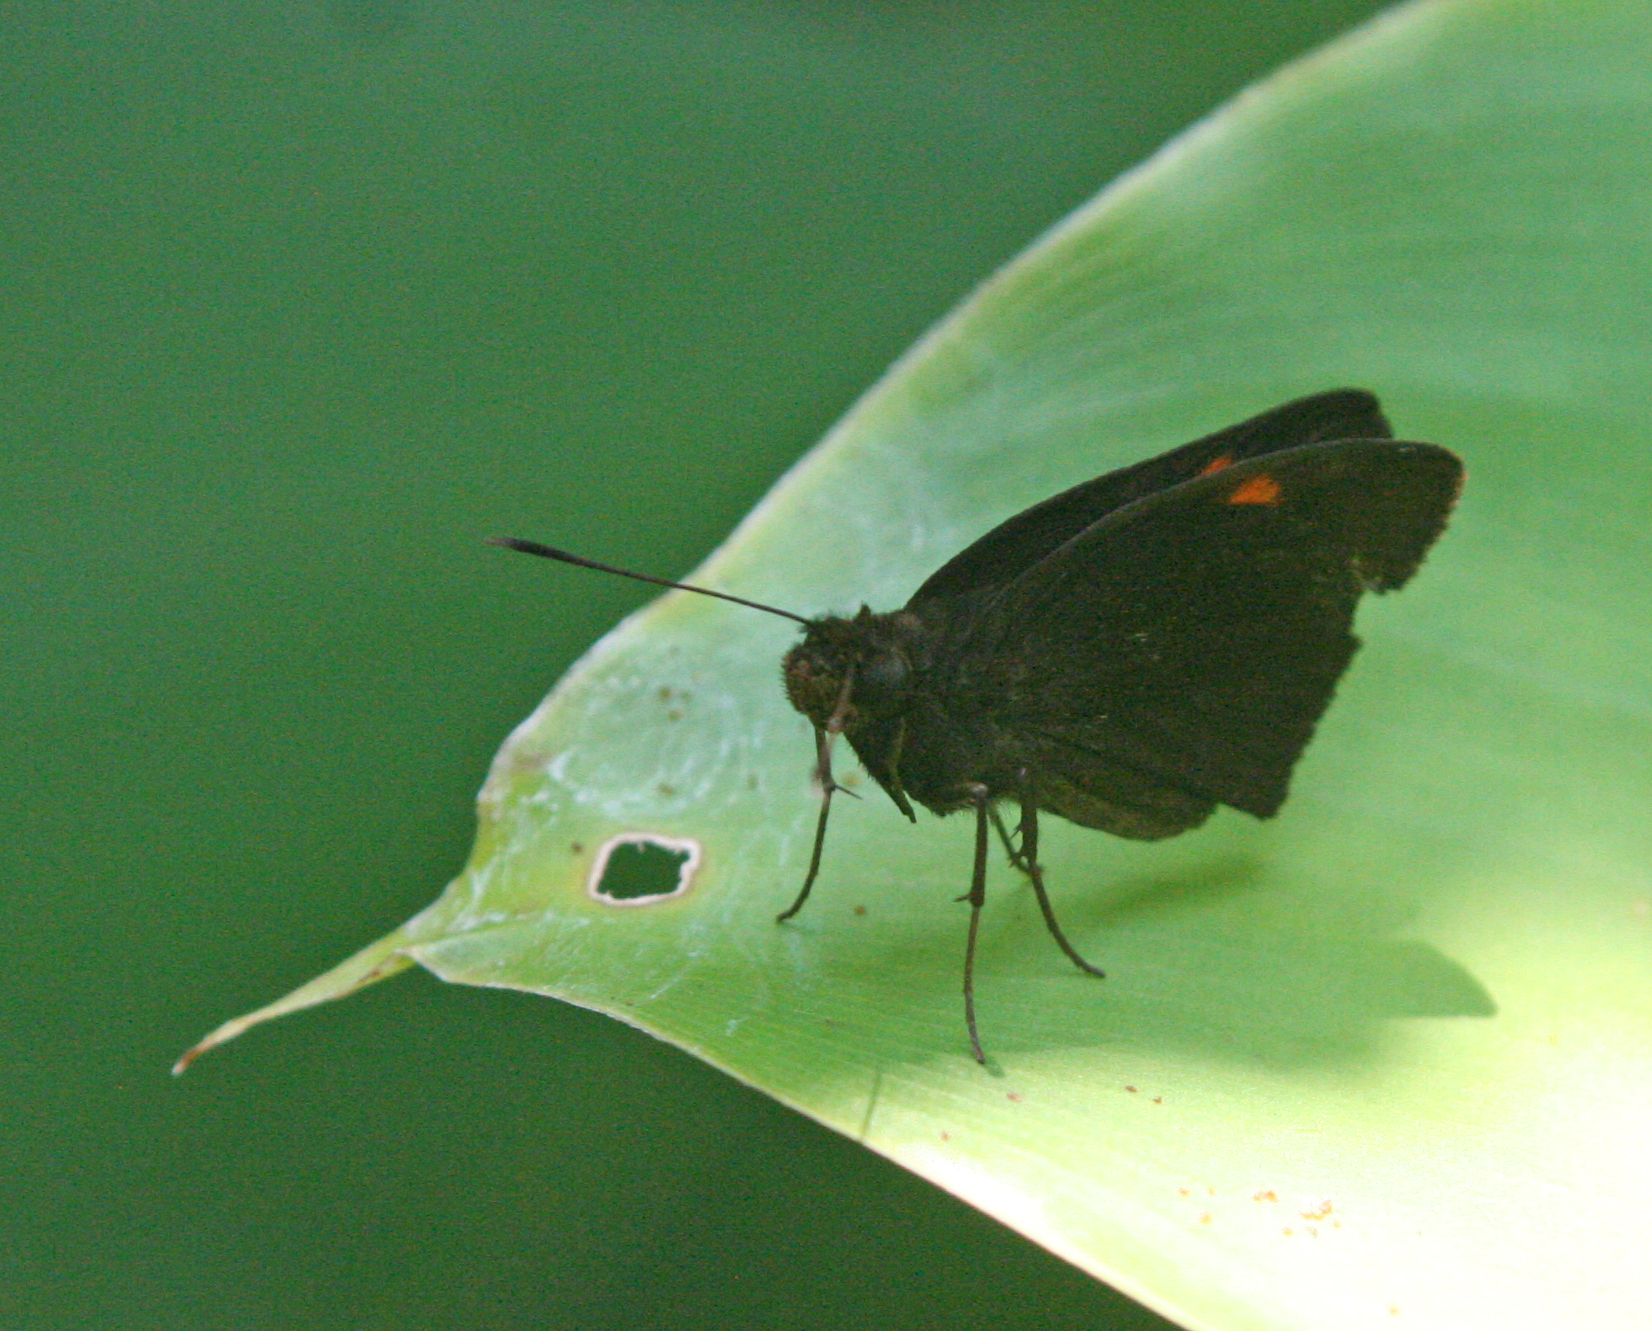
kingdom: Animalia
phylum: Arthropoda
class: Insecta
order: Lepidoptera
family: Hesperiidae
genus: Koruthaialos
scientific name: Koruthaialos sindu
